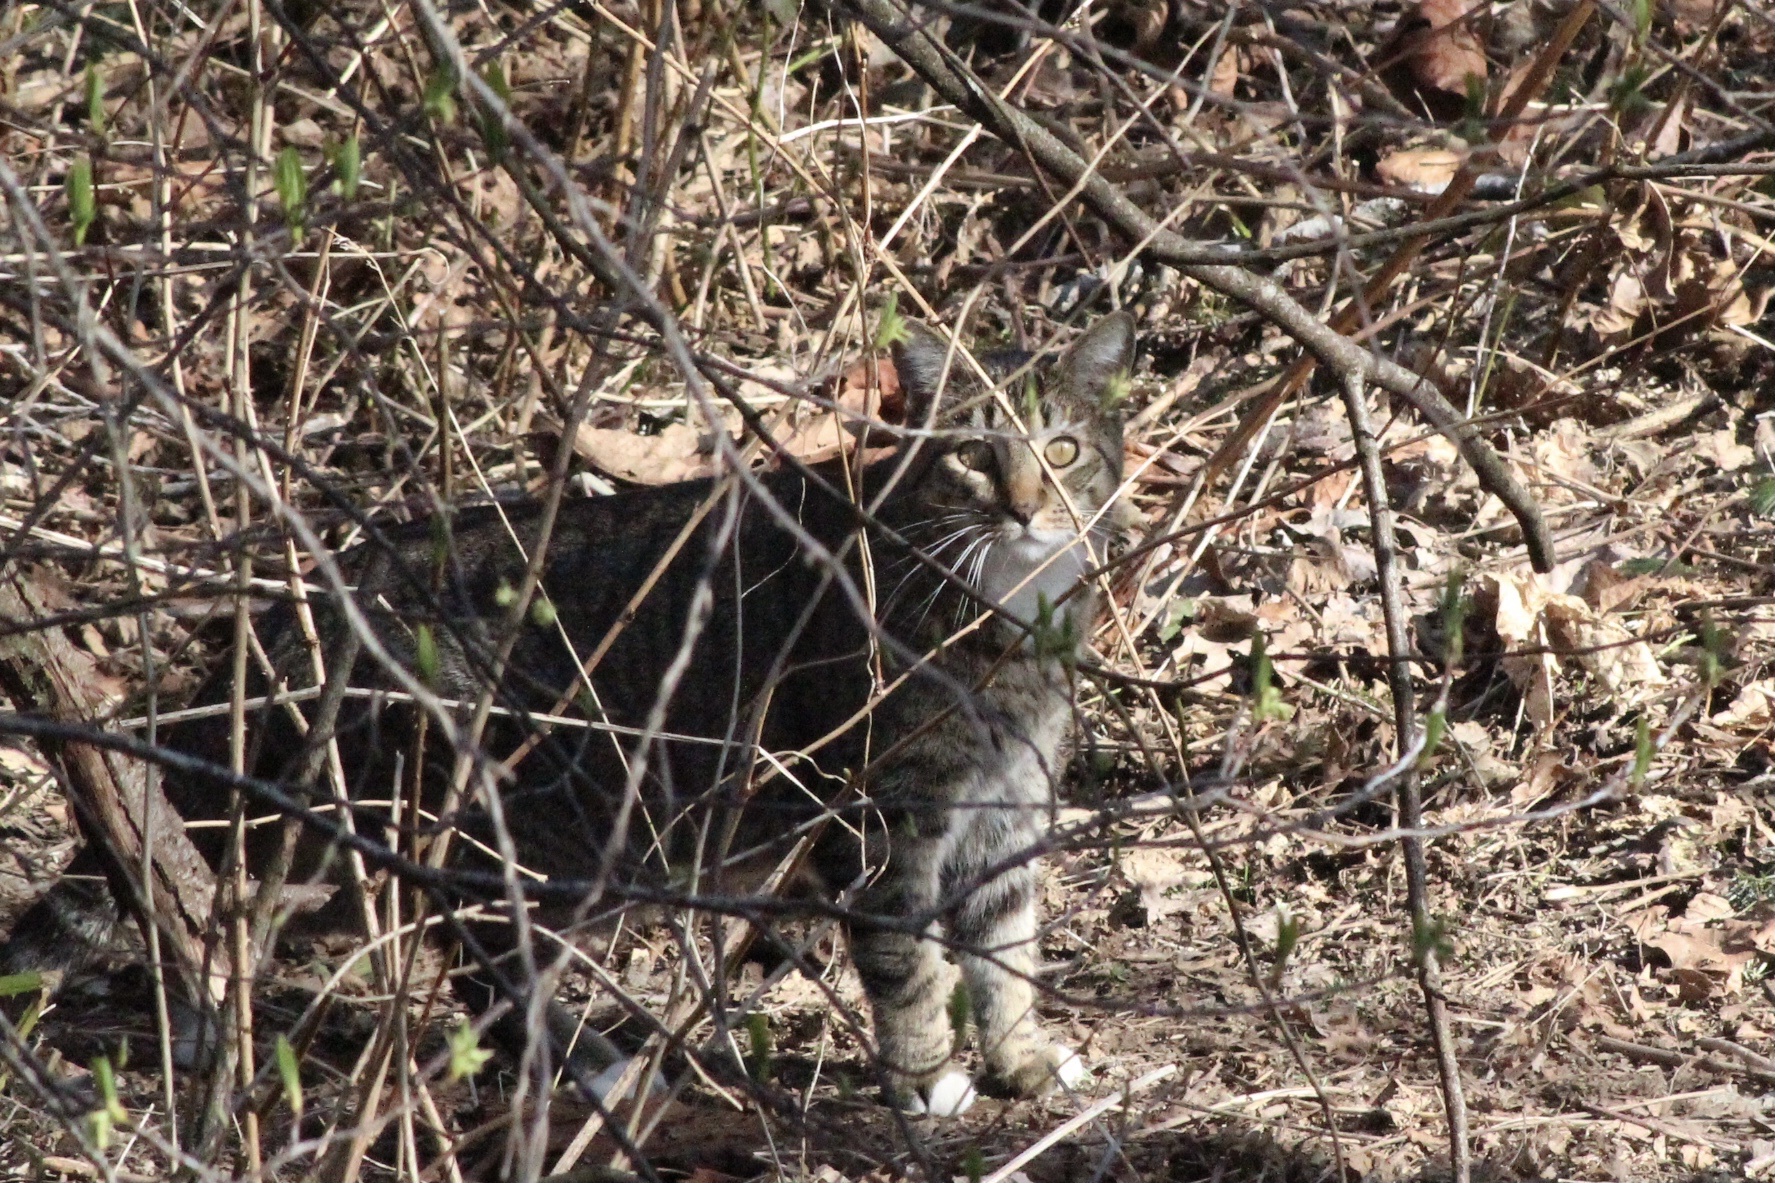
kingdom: Animalia
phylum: Chordata
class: Mammalia
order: Carnivora
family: Felidae
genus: Felis
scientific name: Felis catus
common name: Domestic cat
